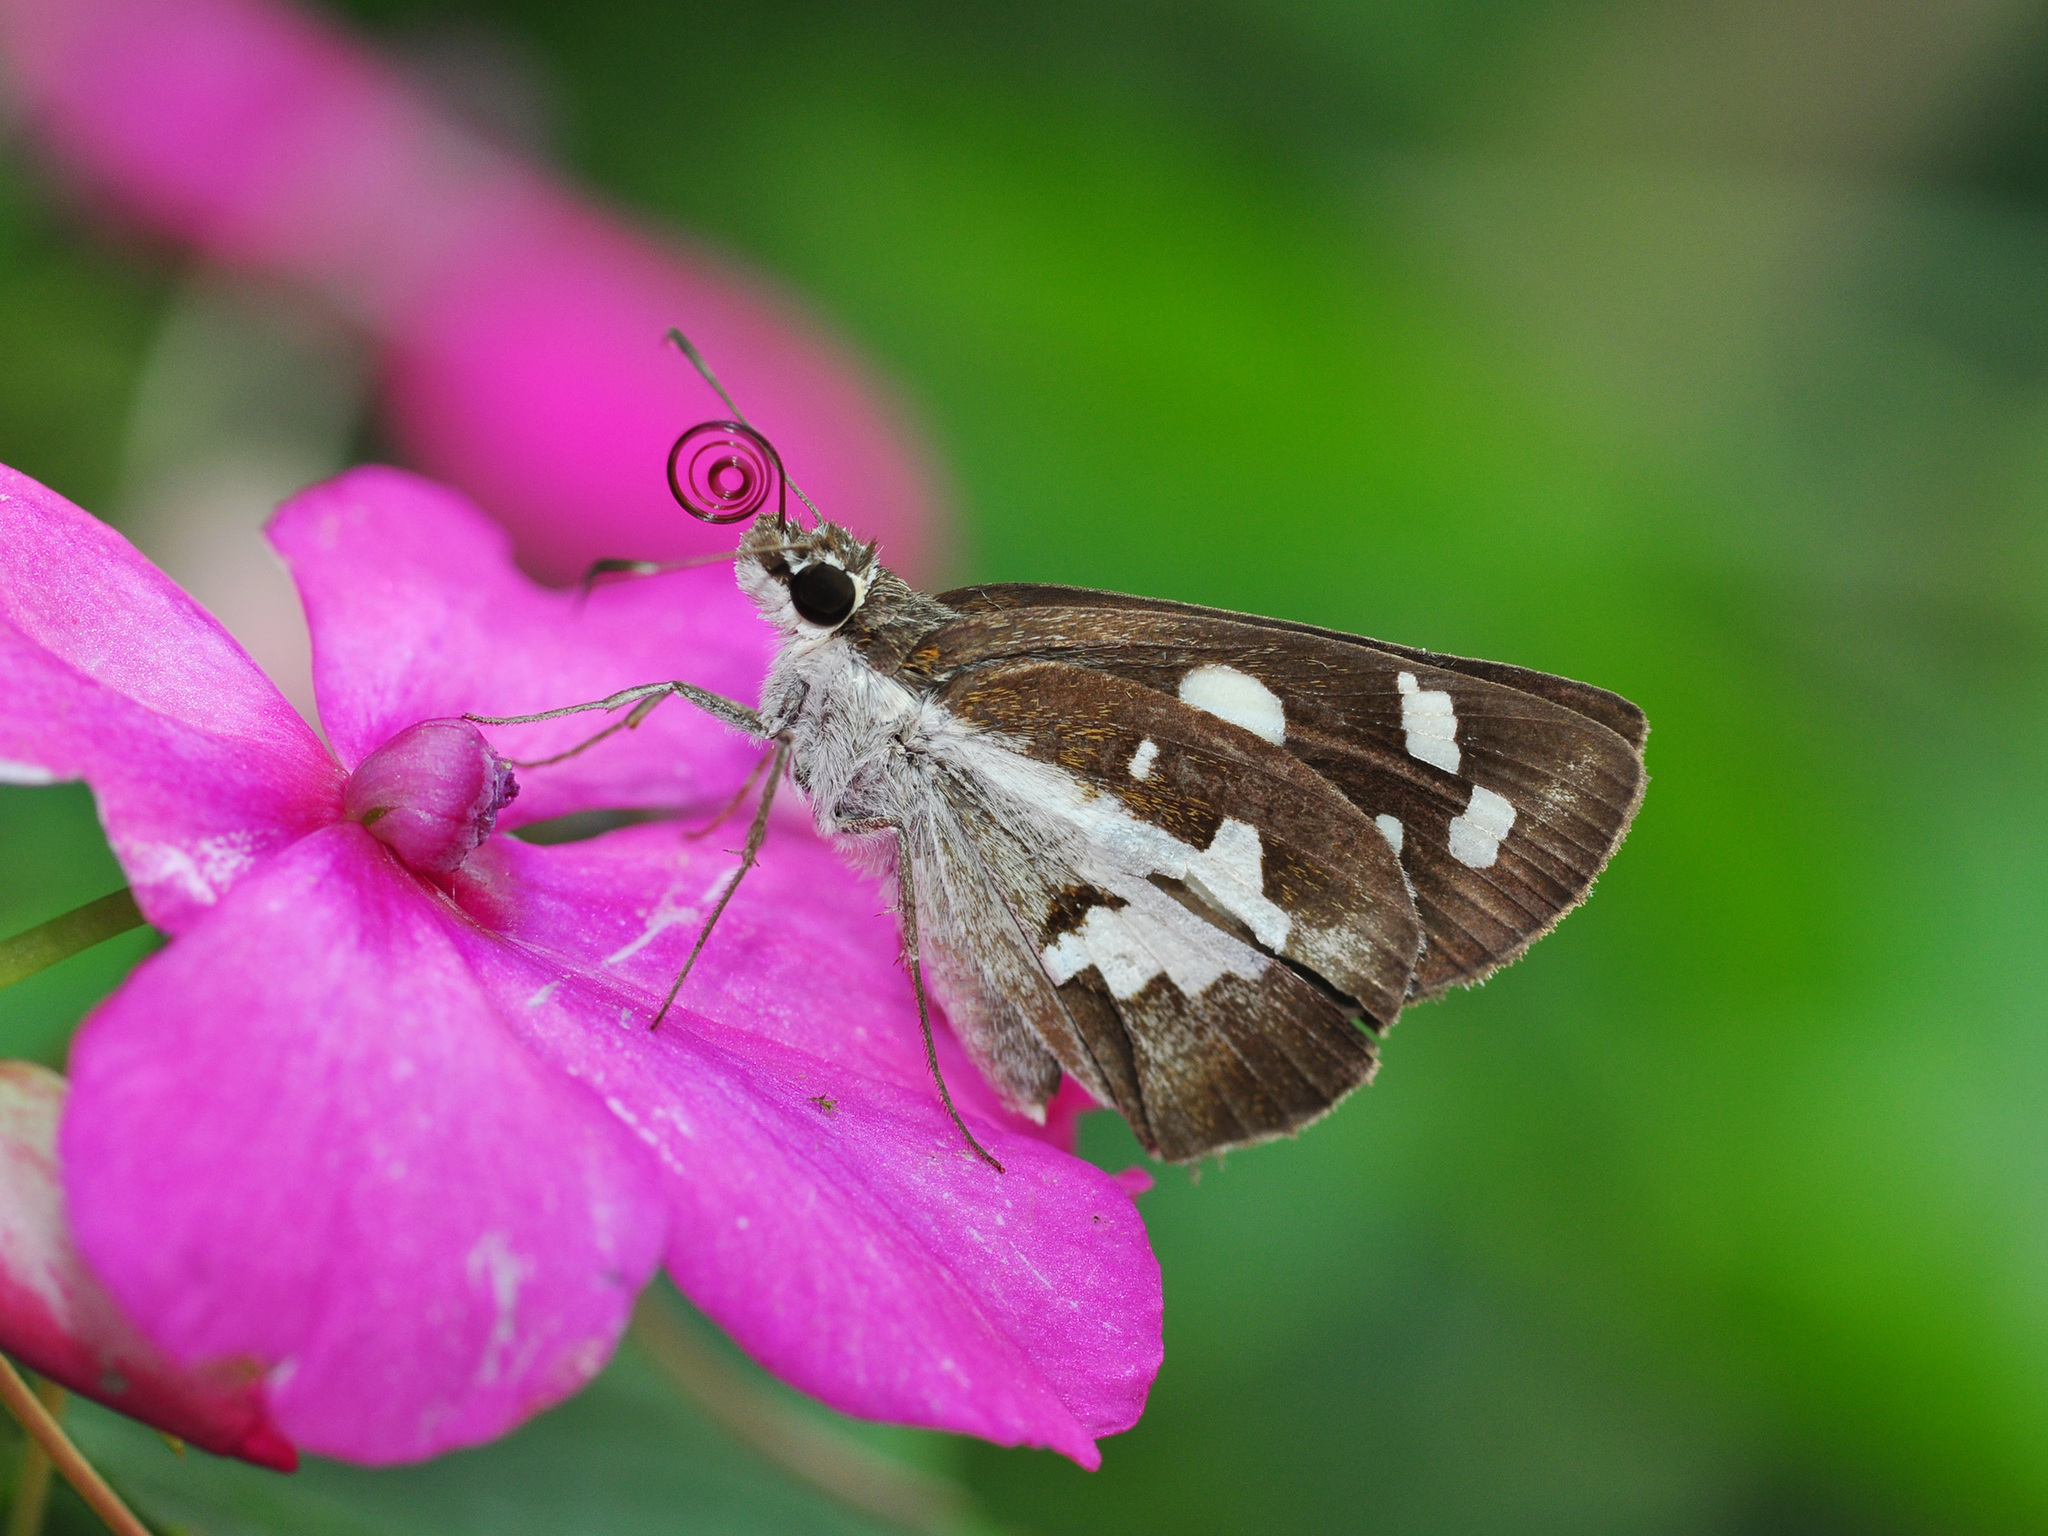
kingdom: Animalia
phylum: Arthropoda
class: Insecta
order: Lepidoptera
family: Hesperiidae
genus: Udaspes
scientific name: Udaspes folus
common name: Grass demon
